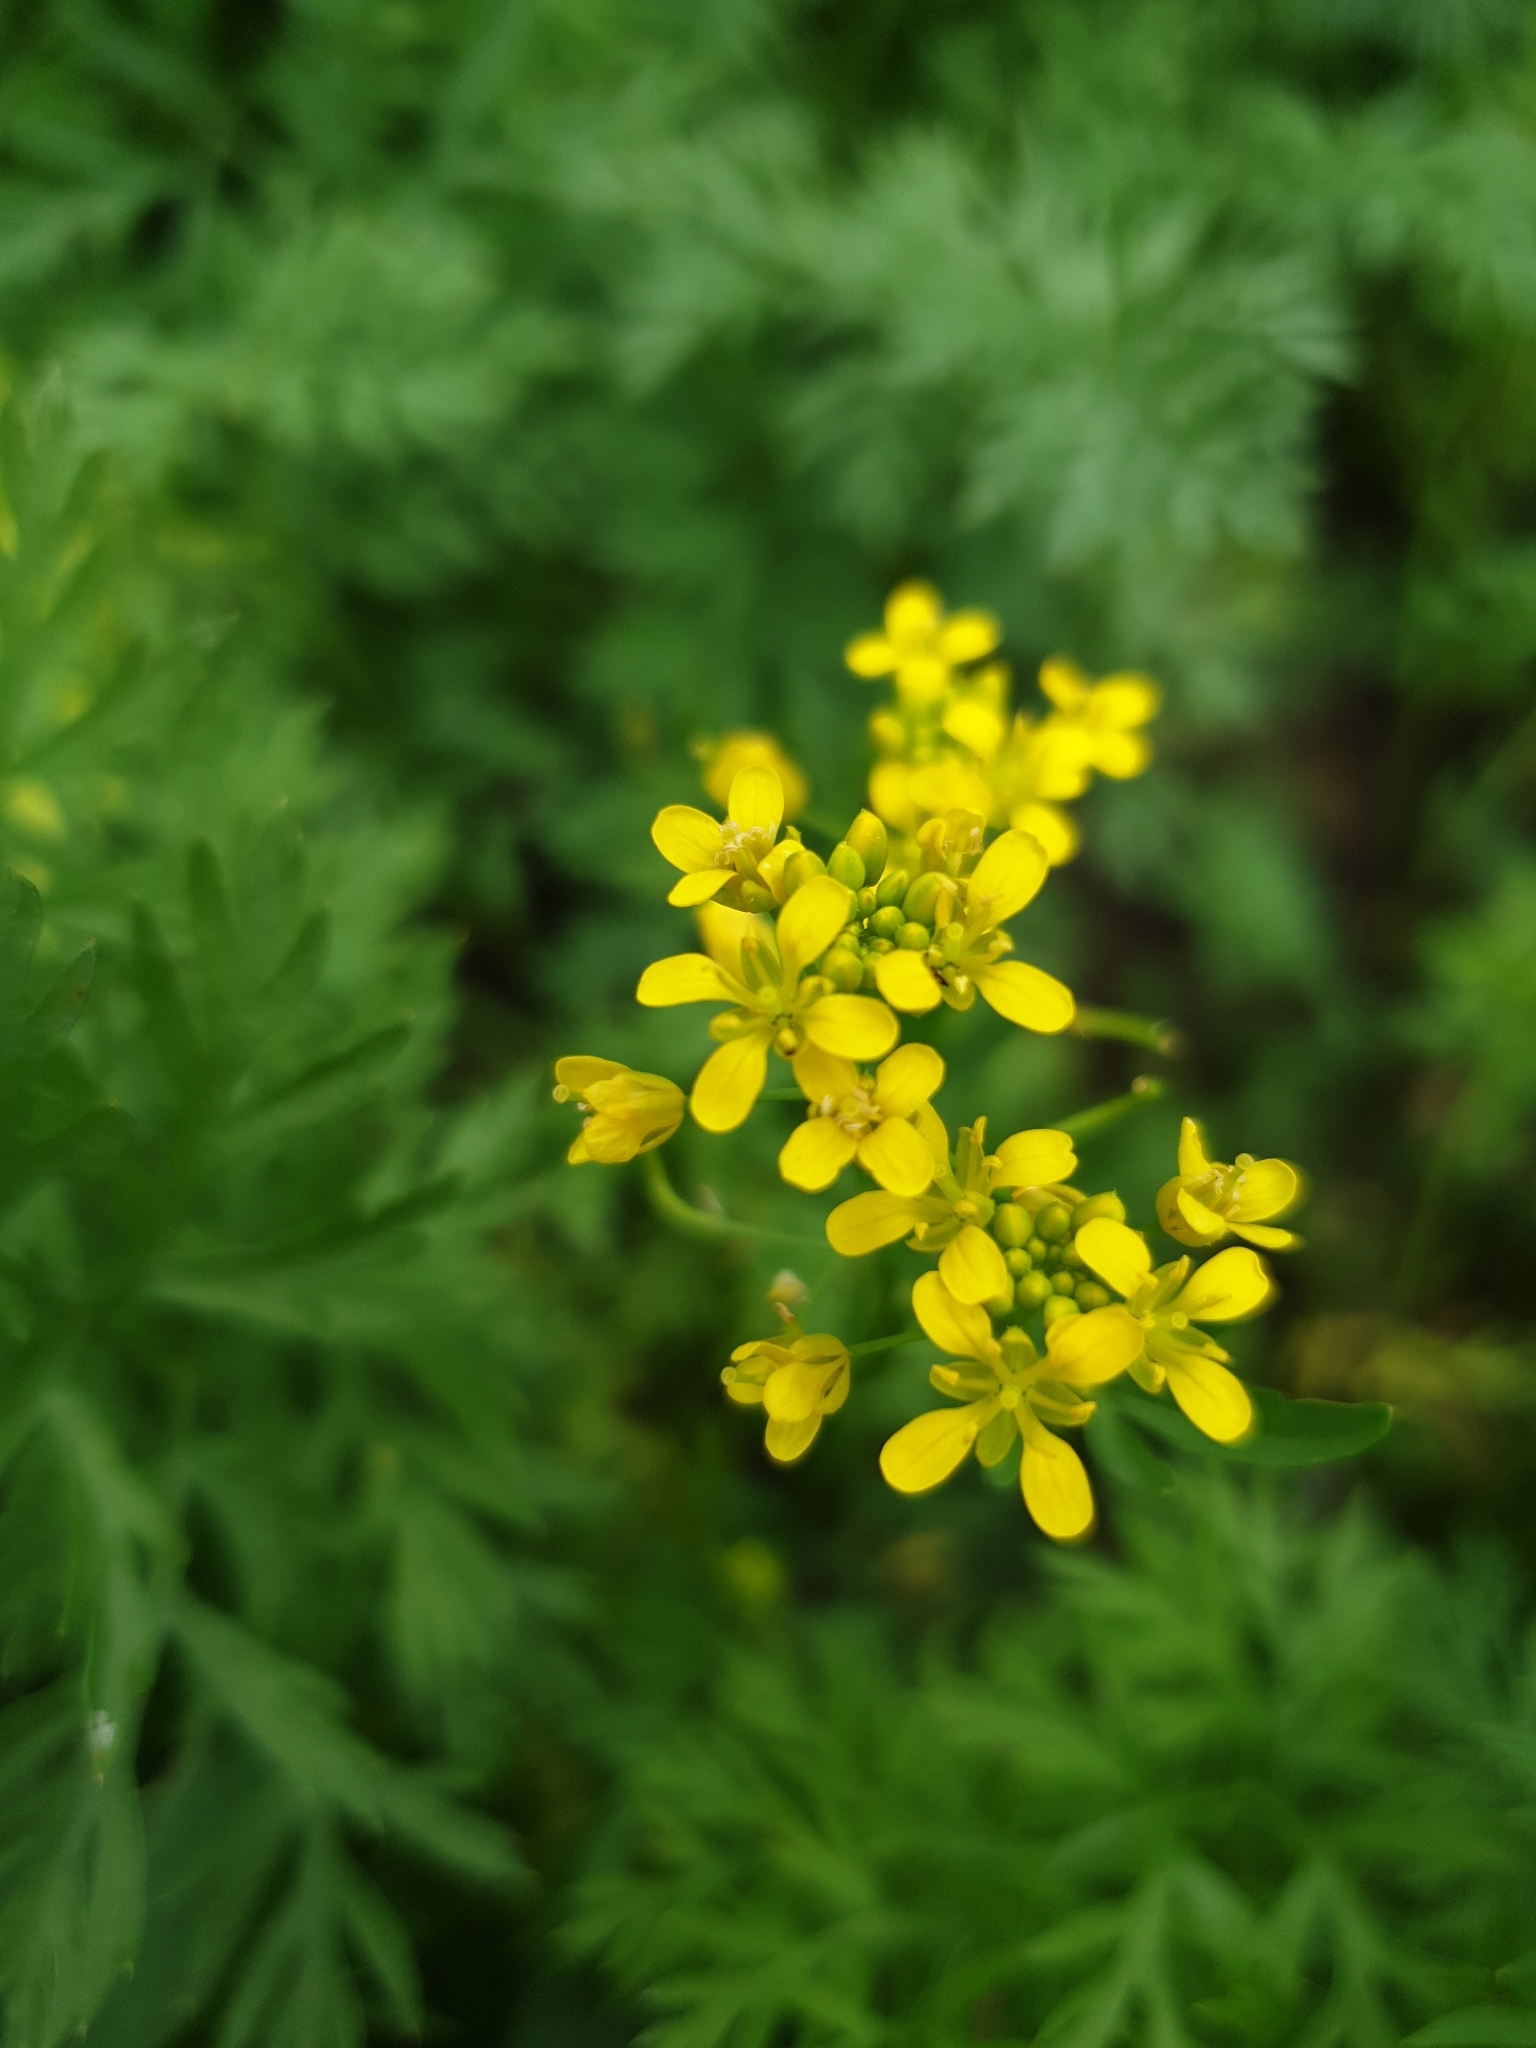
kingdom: Plantae
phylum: Tracheophyta
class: Magnoliopsida
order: Brassicales
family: Brassicaceae
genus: Rorippa
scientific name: Rorippa sylvestris
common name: Creeping yellowcress
